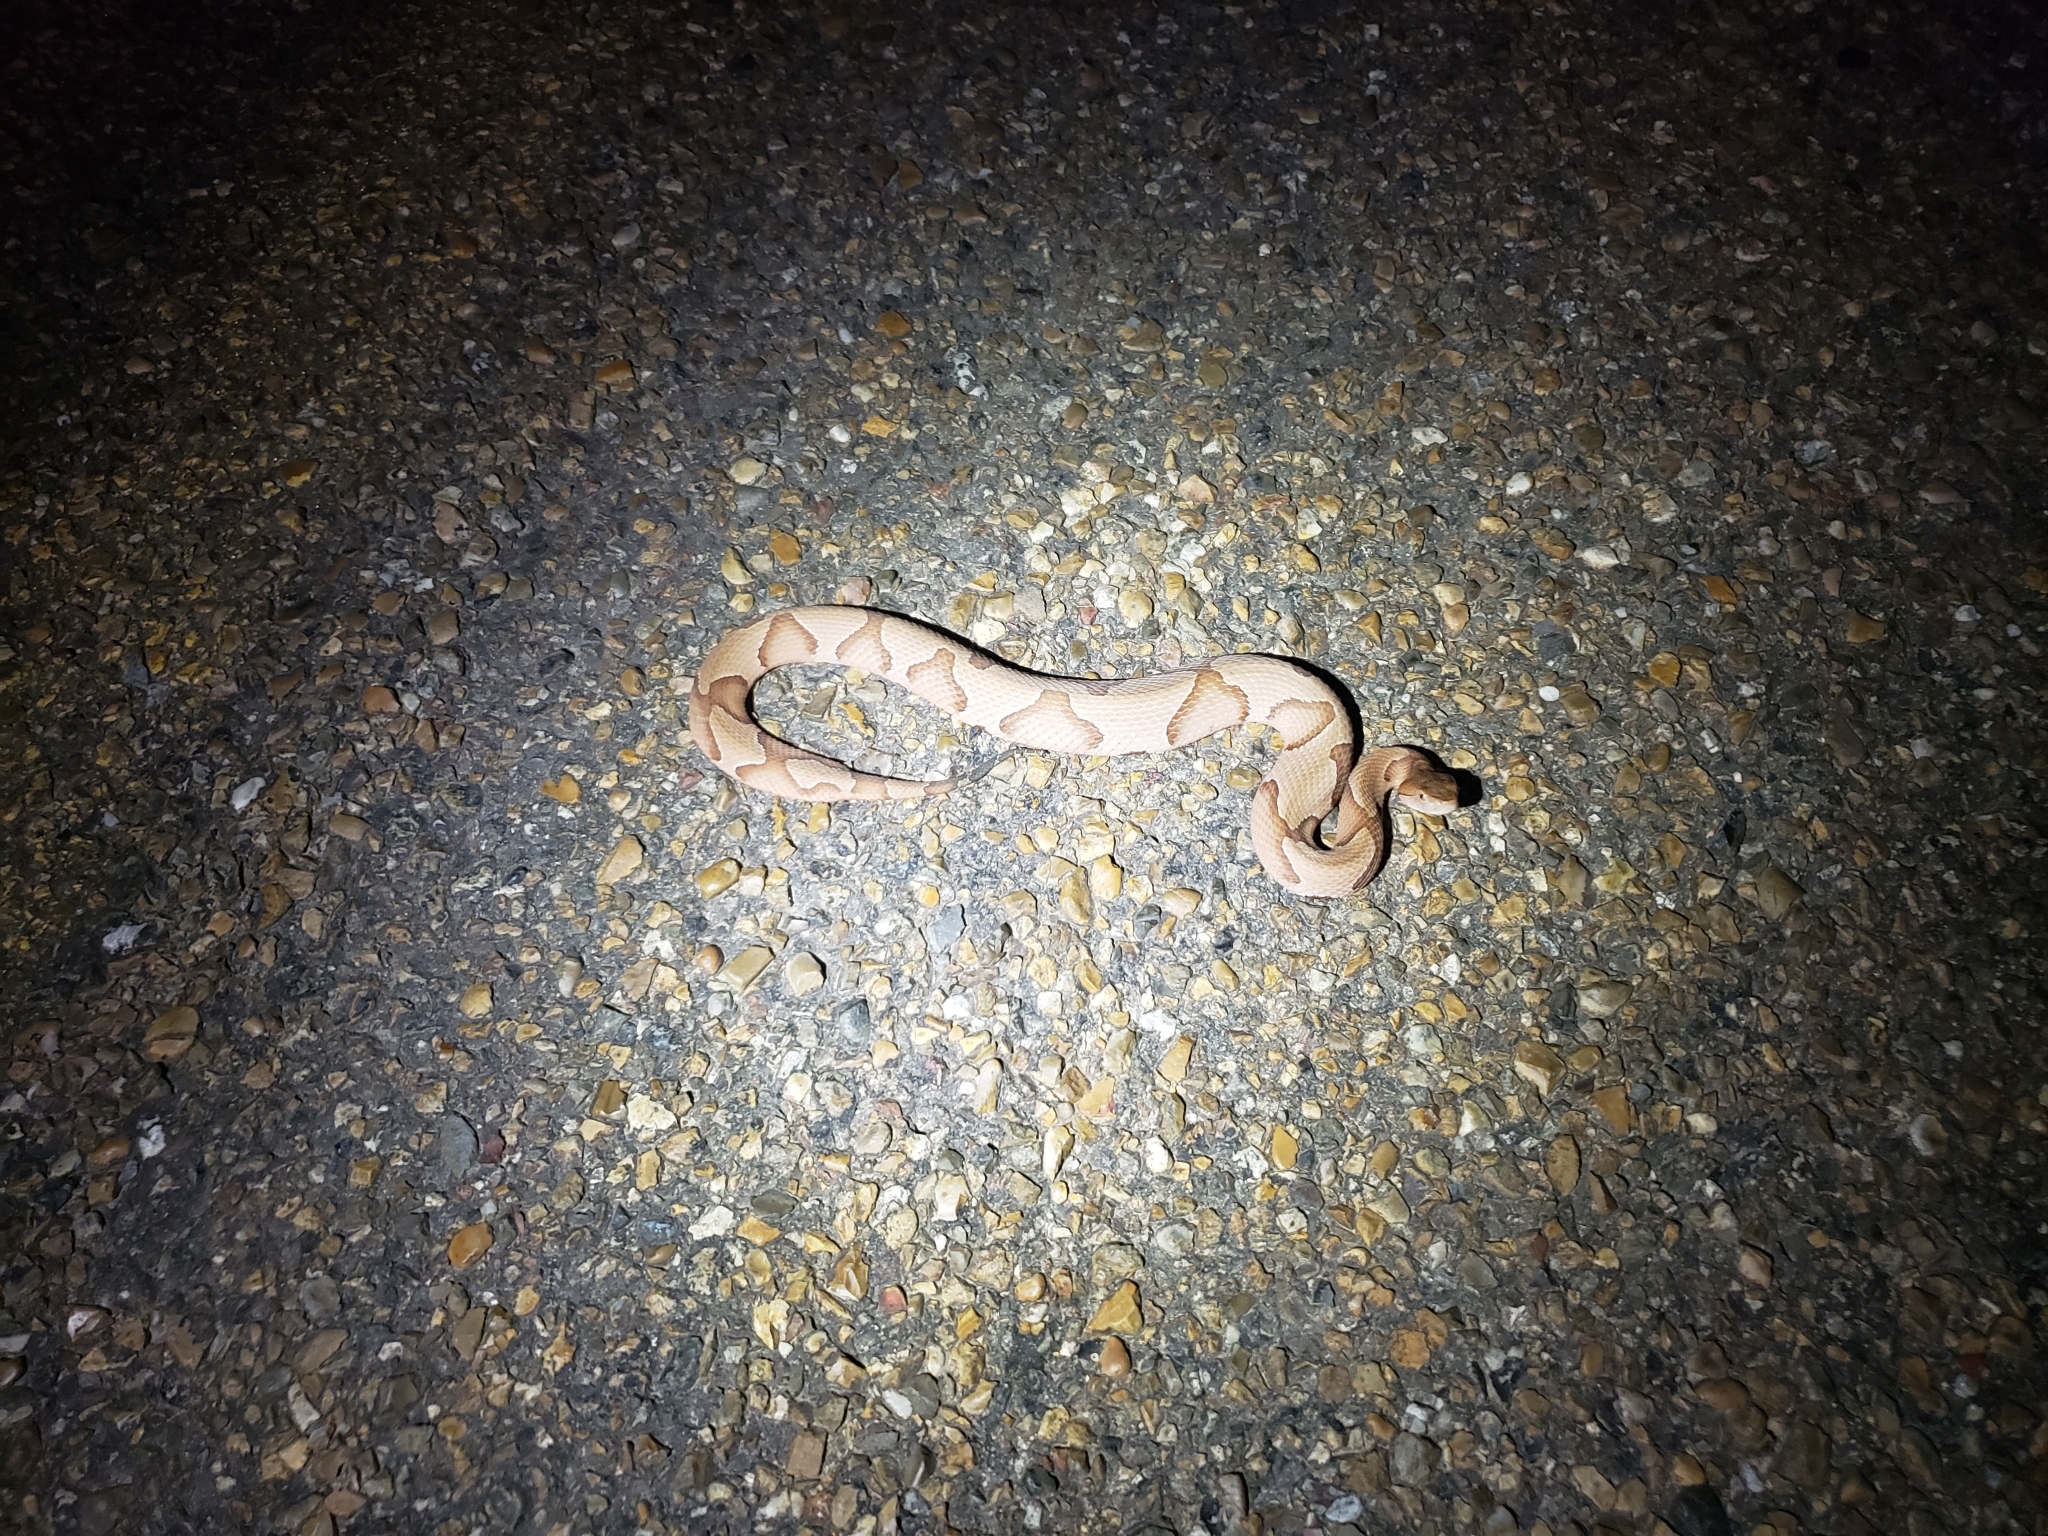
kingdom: Animalia
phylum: Chordata
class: Squamata
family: Viperidae
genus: Agkistrodon
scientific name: Agkistrodon contortrix
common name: Northern copperhead
